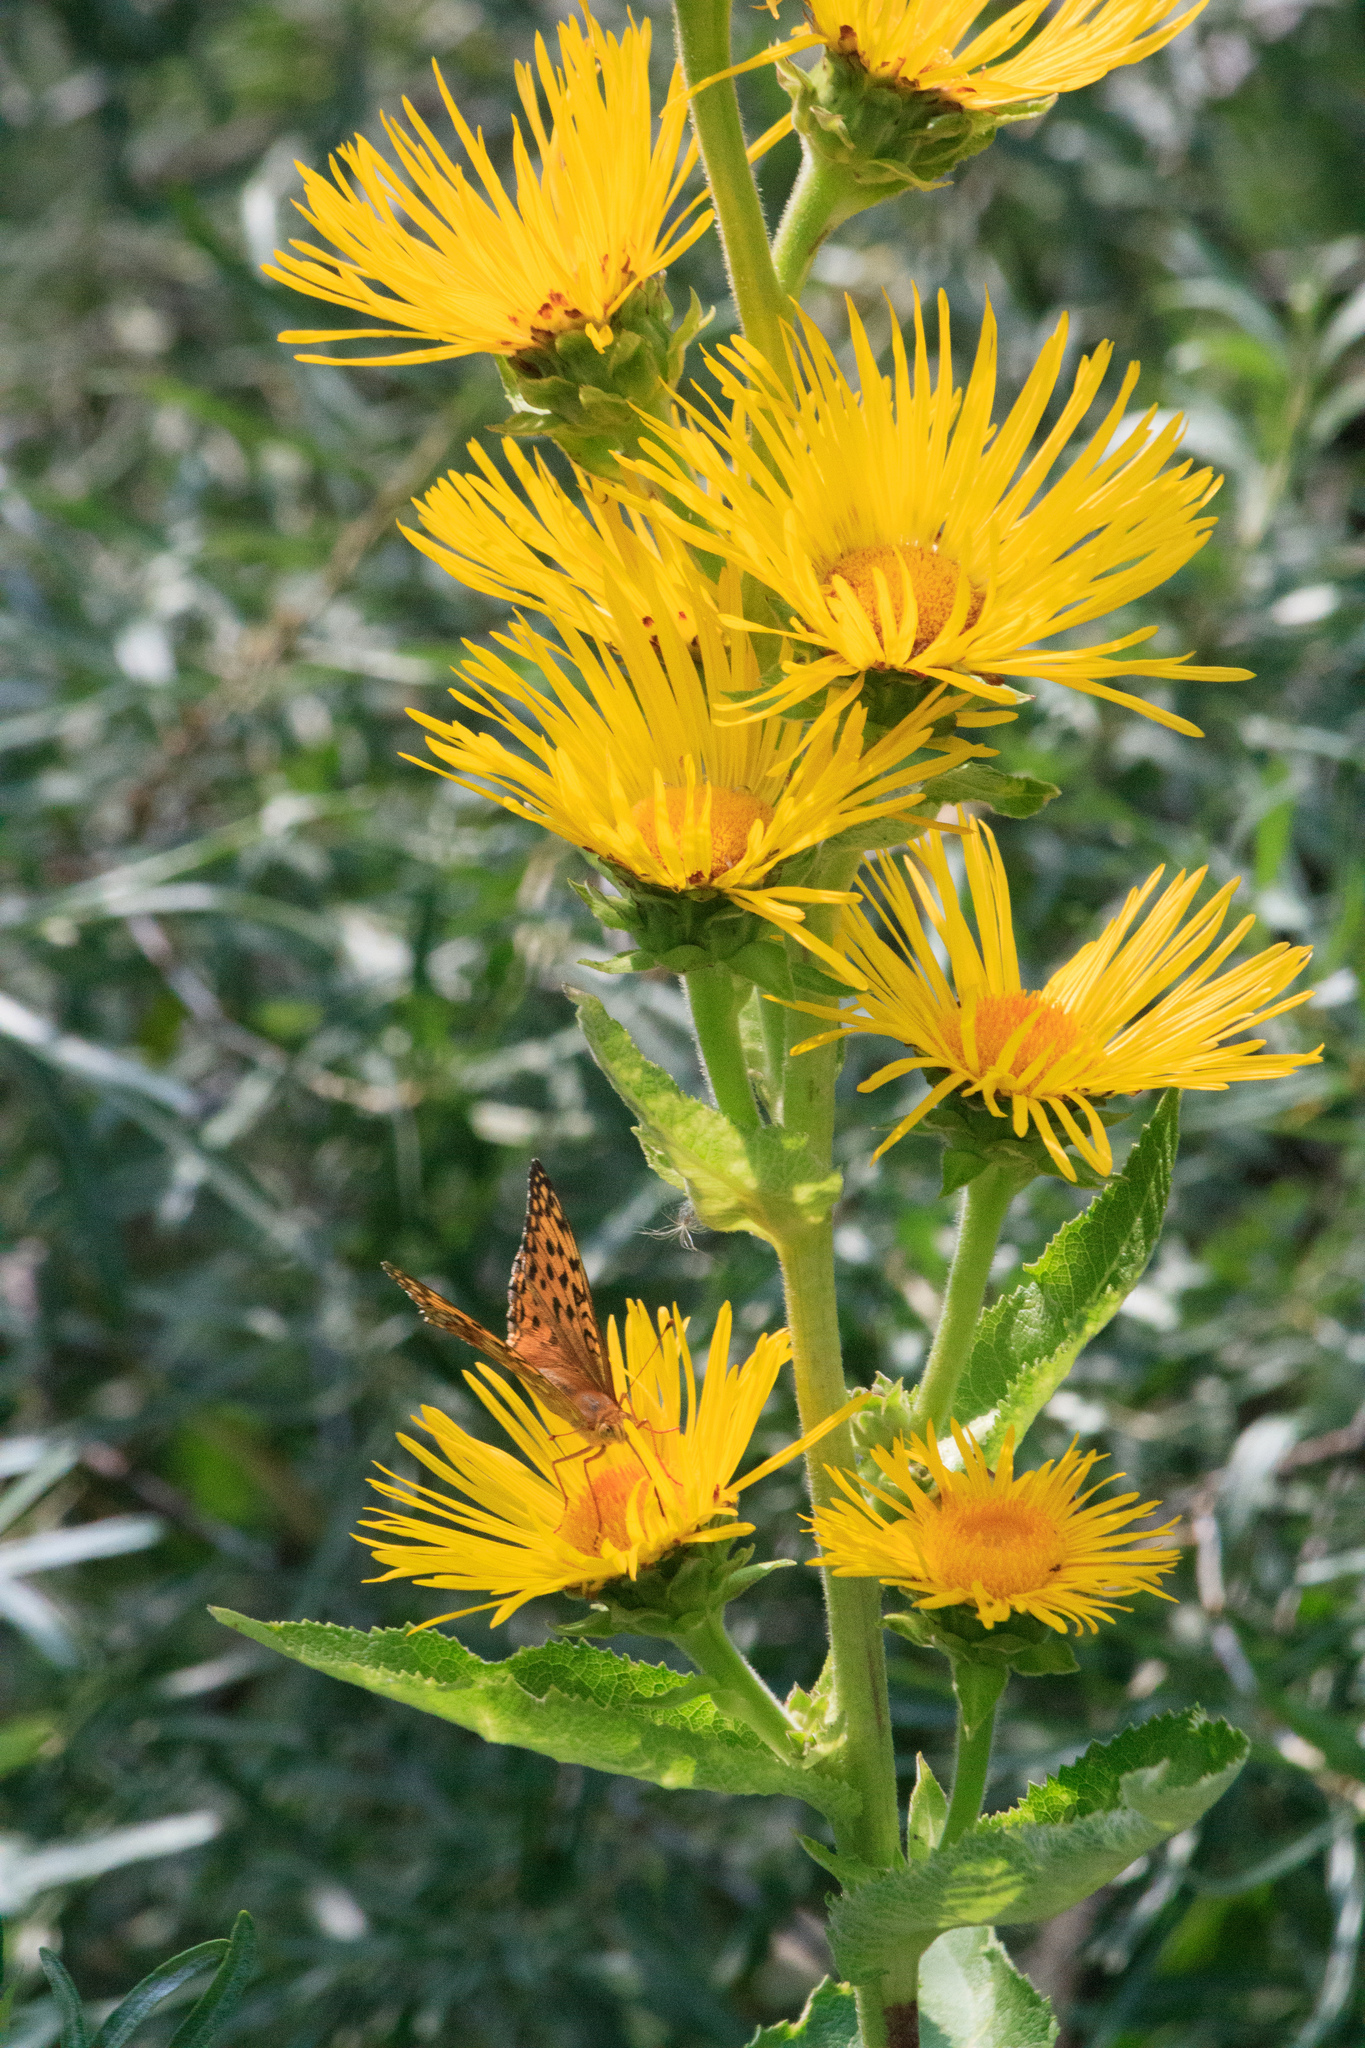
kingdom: Plantae
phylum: Tracheophyta
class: Magnoliopsida
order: Asterales
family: Asteraceae
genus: Inula
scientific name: Inula helenium
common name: Elecampane
